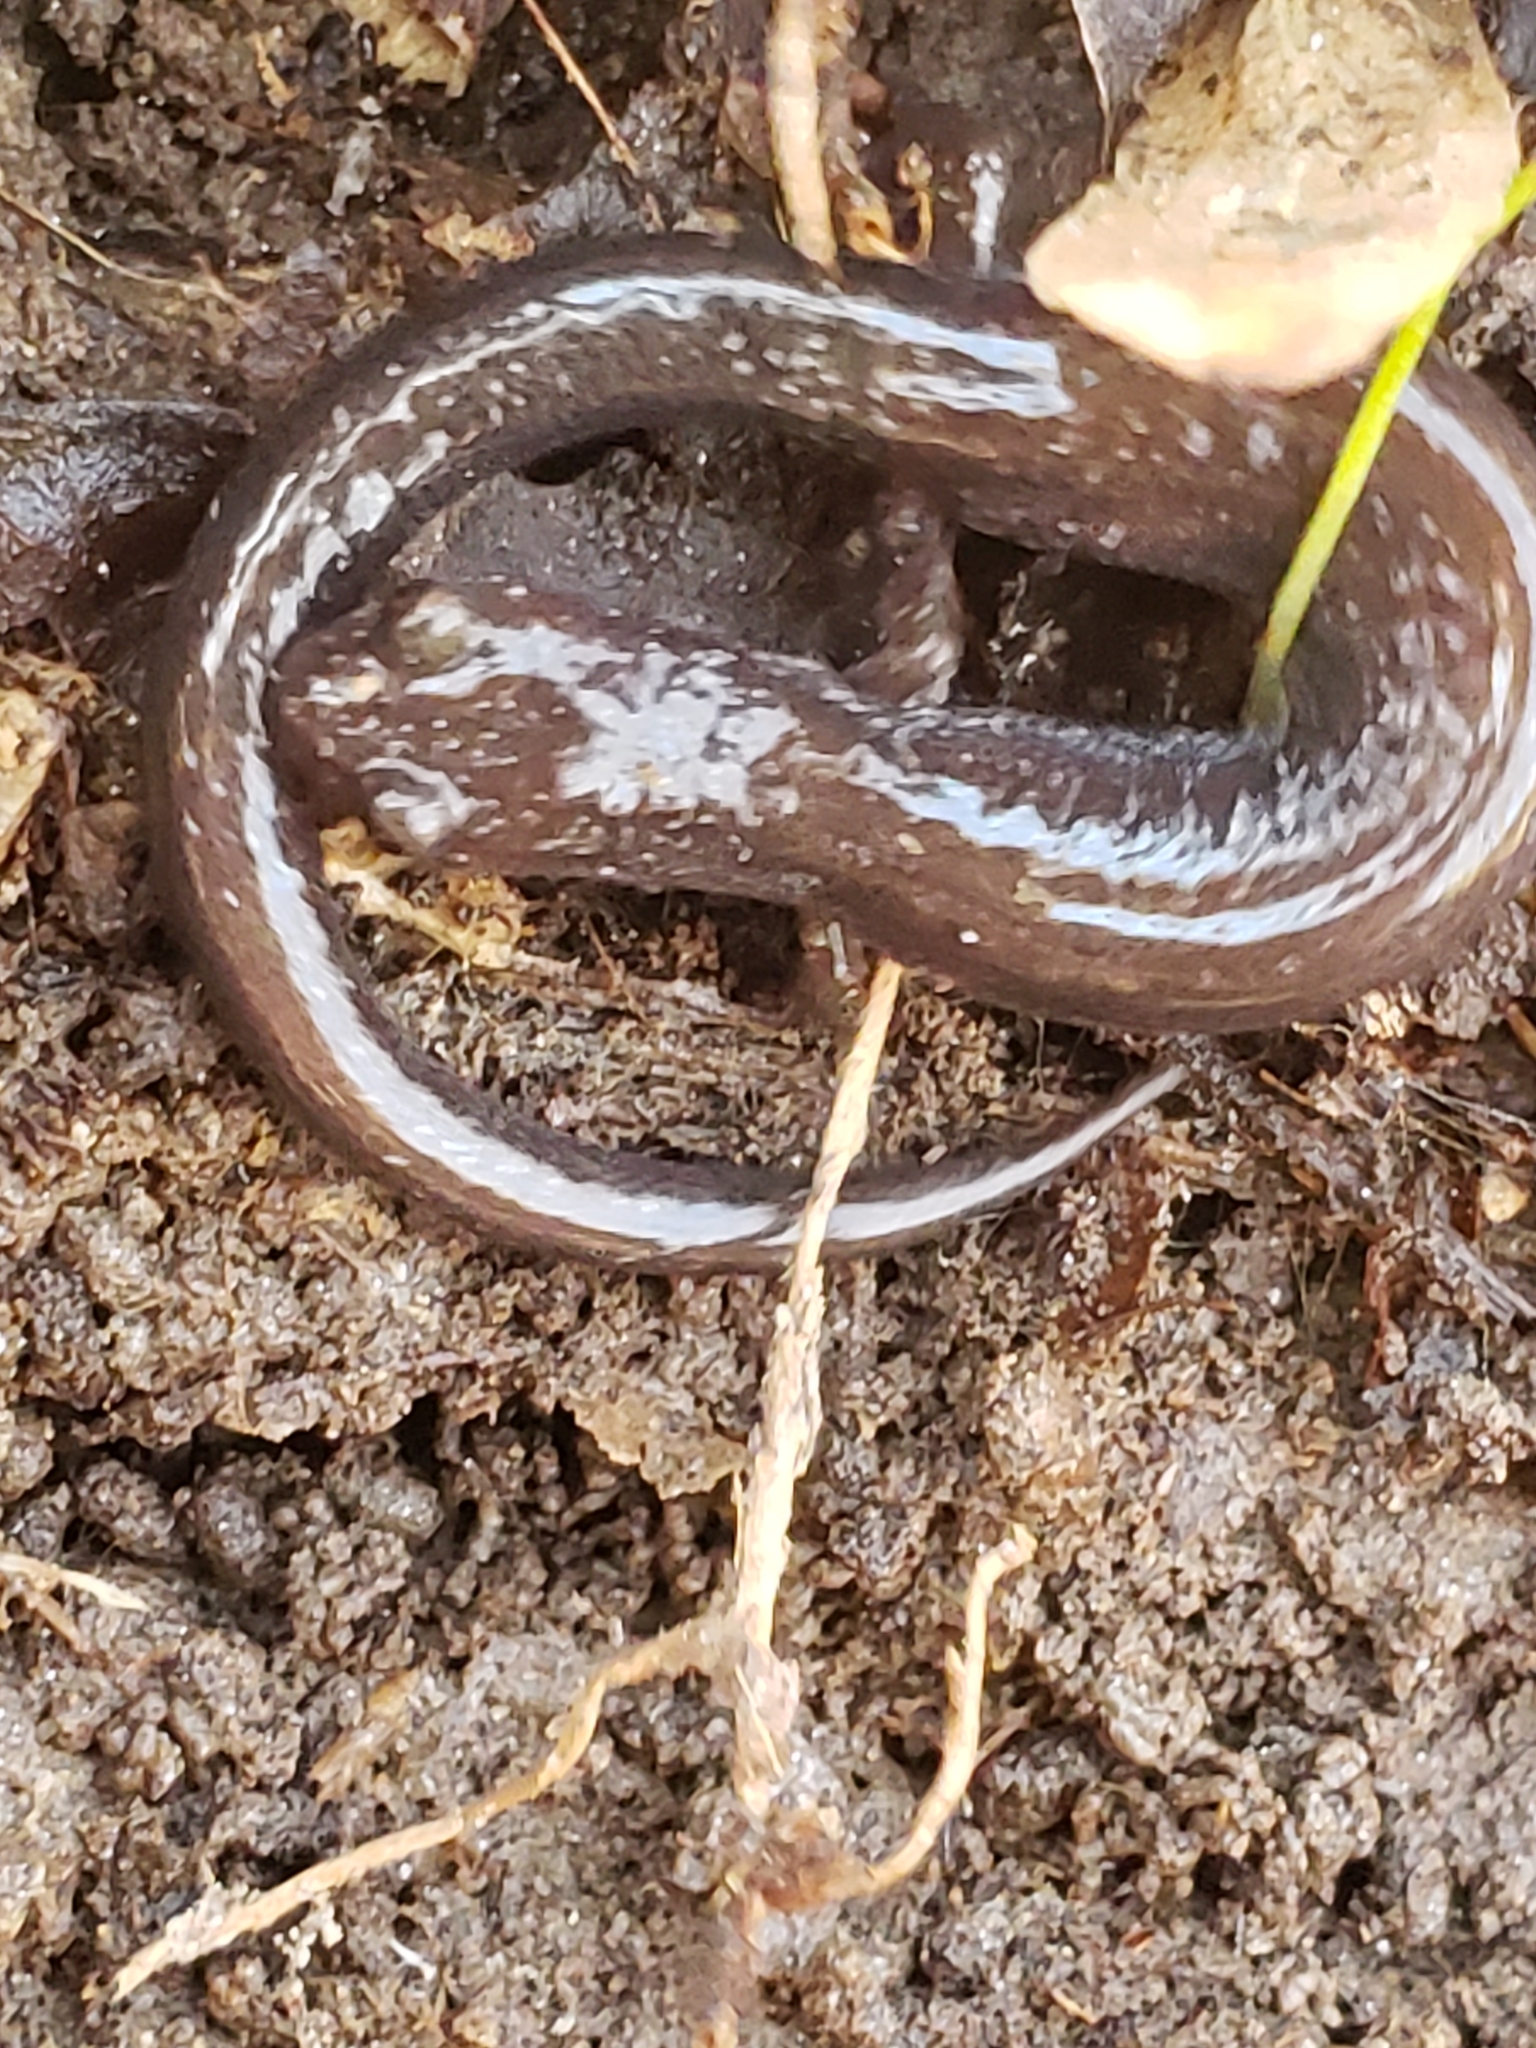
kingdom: Animalia
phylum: Chordata
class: Amphibia
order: Caudata
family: Plethodontidae
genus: Plethodon
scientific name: Plethodon cinereus
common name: Redback salamander
